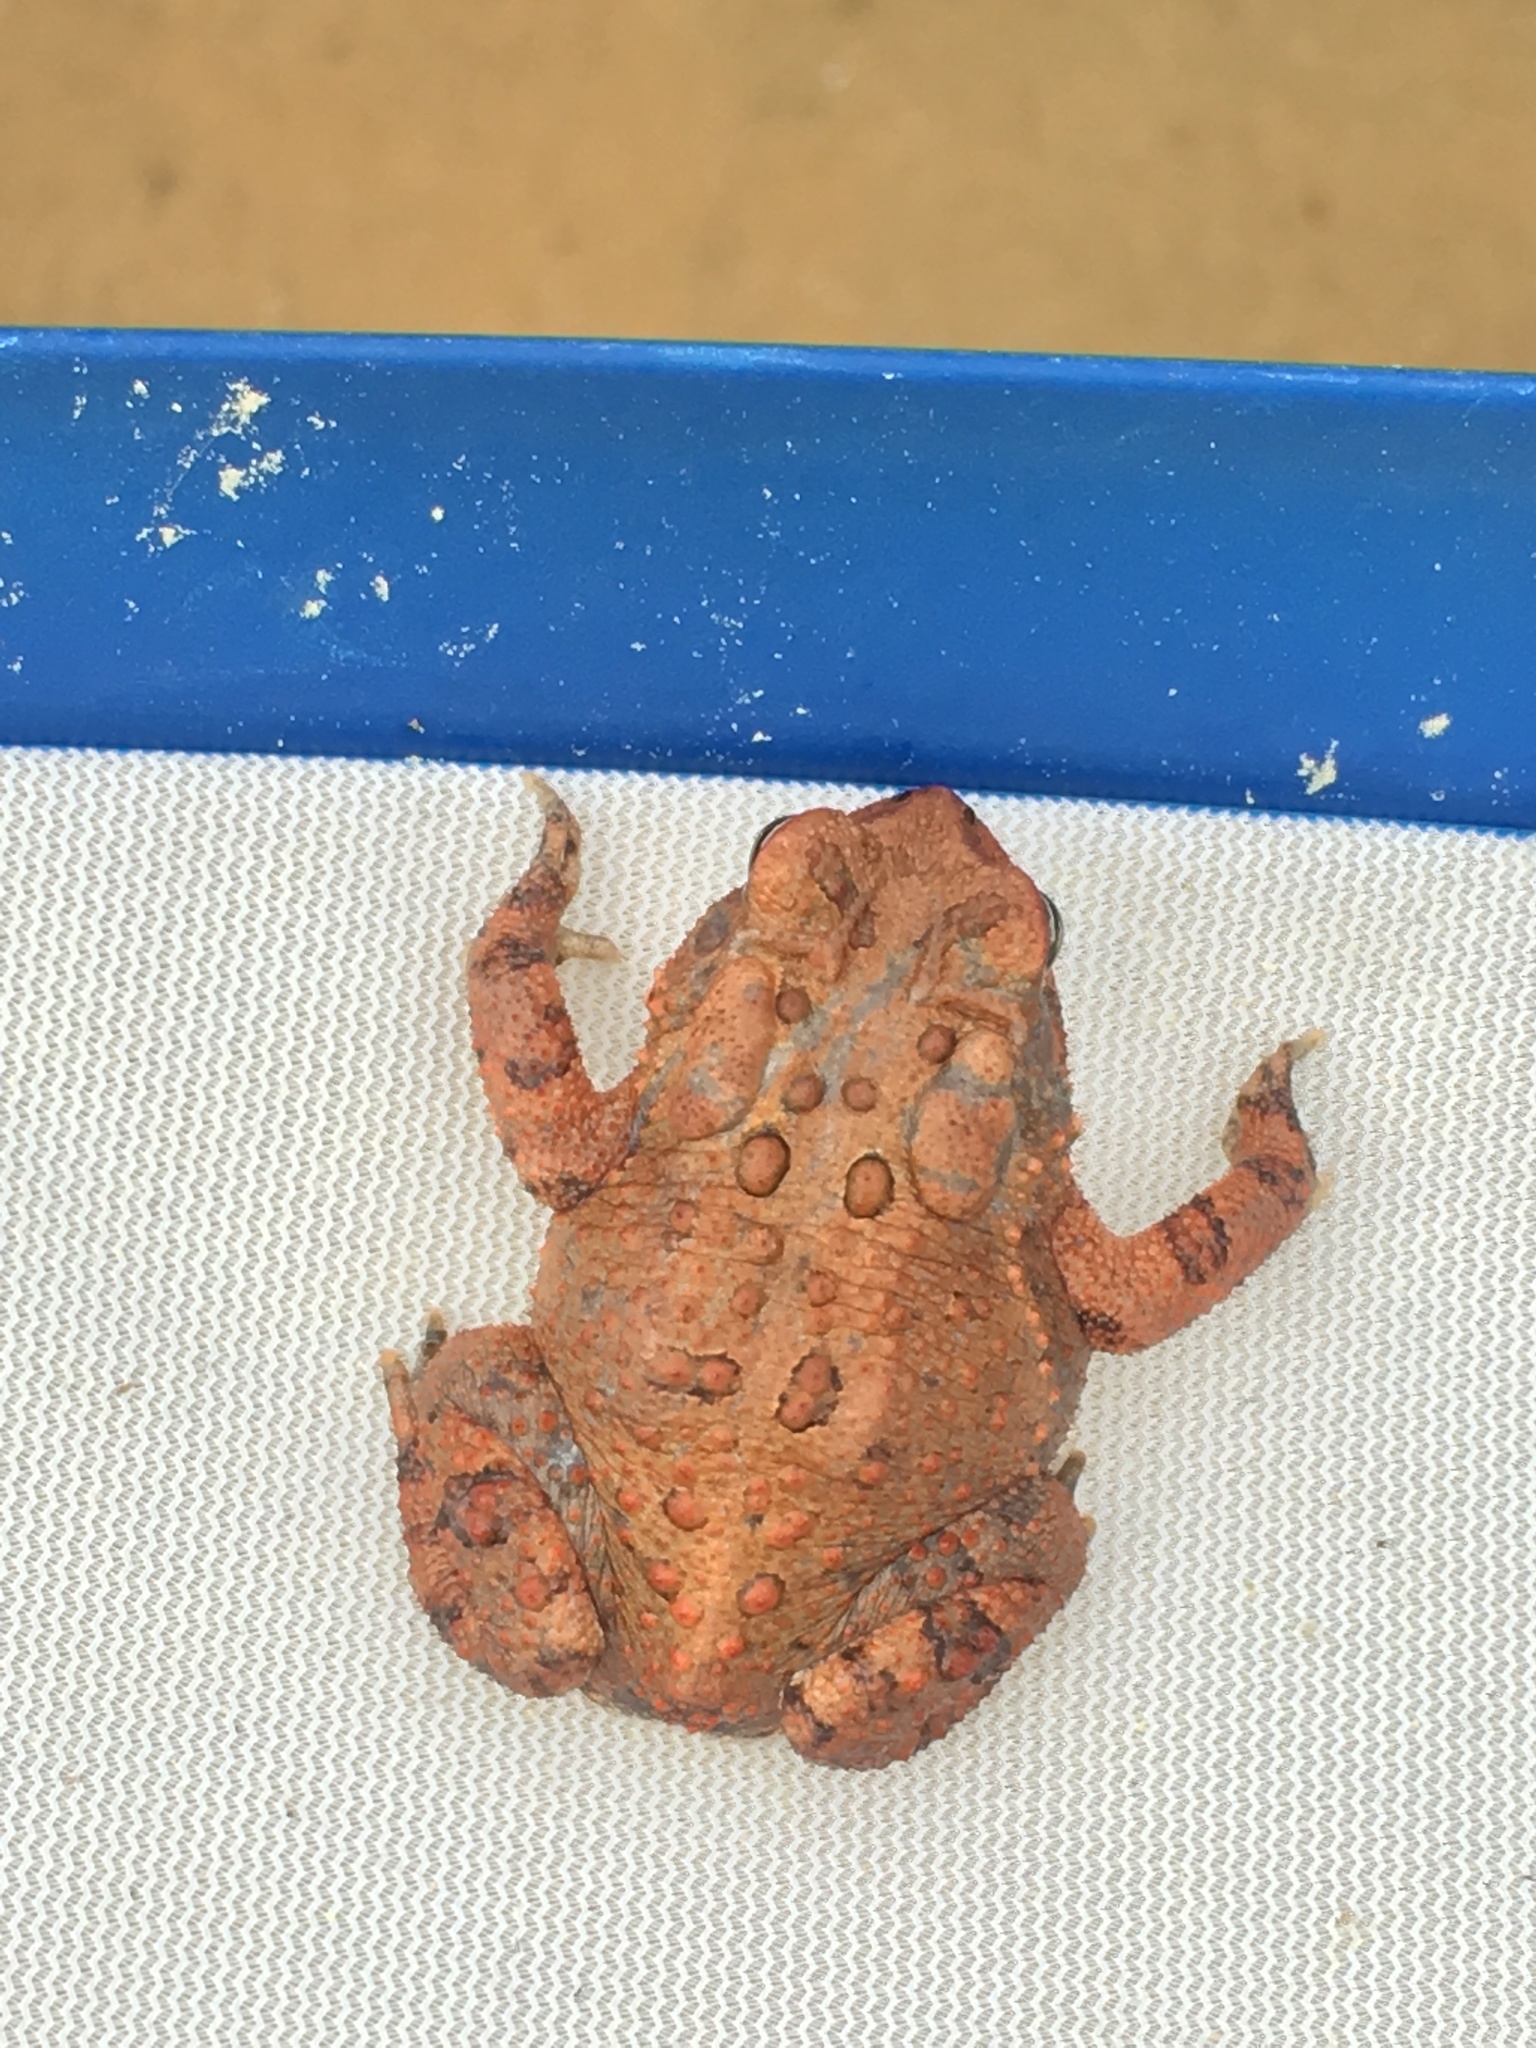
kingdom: Animalia
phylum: Chordata
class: Amphibia
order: Anura
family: Bufonidae
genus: Anaxyrus
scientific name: Anaxyrus americanus
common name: American toad
